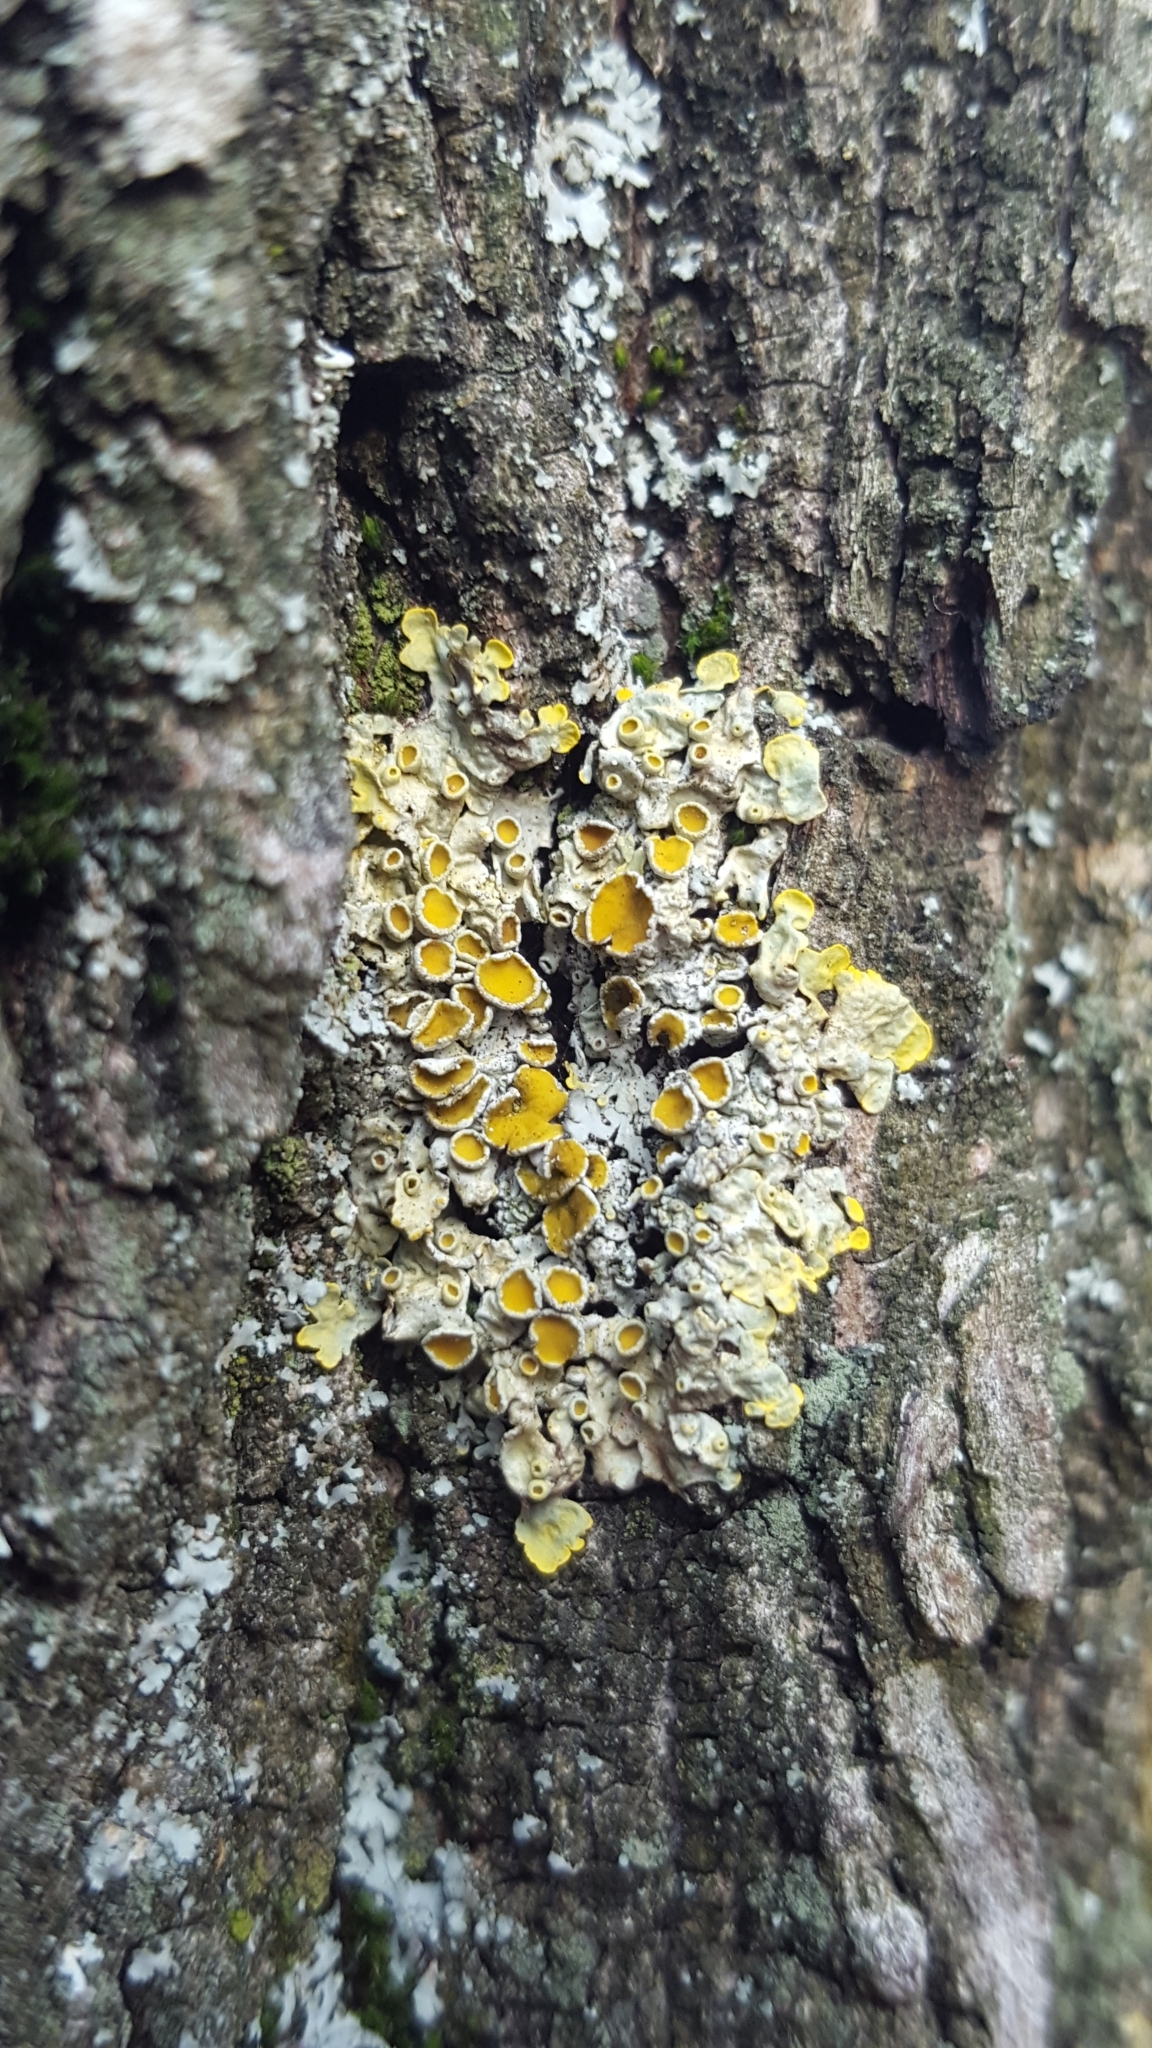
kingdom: Fungi
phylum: Ascomycota
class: Lecanoromycetes
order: Teloschistales
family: Teloschistaceae
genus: Xanthoria
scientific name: Xanthoria parietina
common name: Common orange lichen
